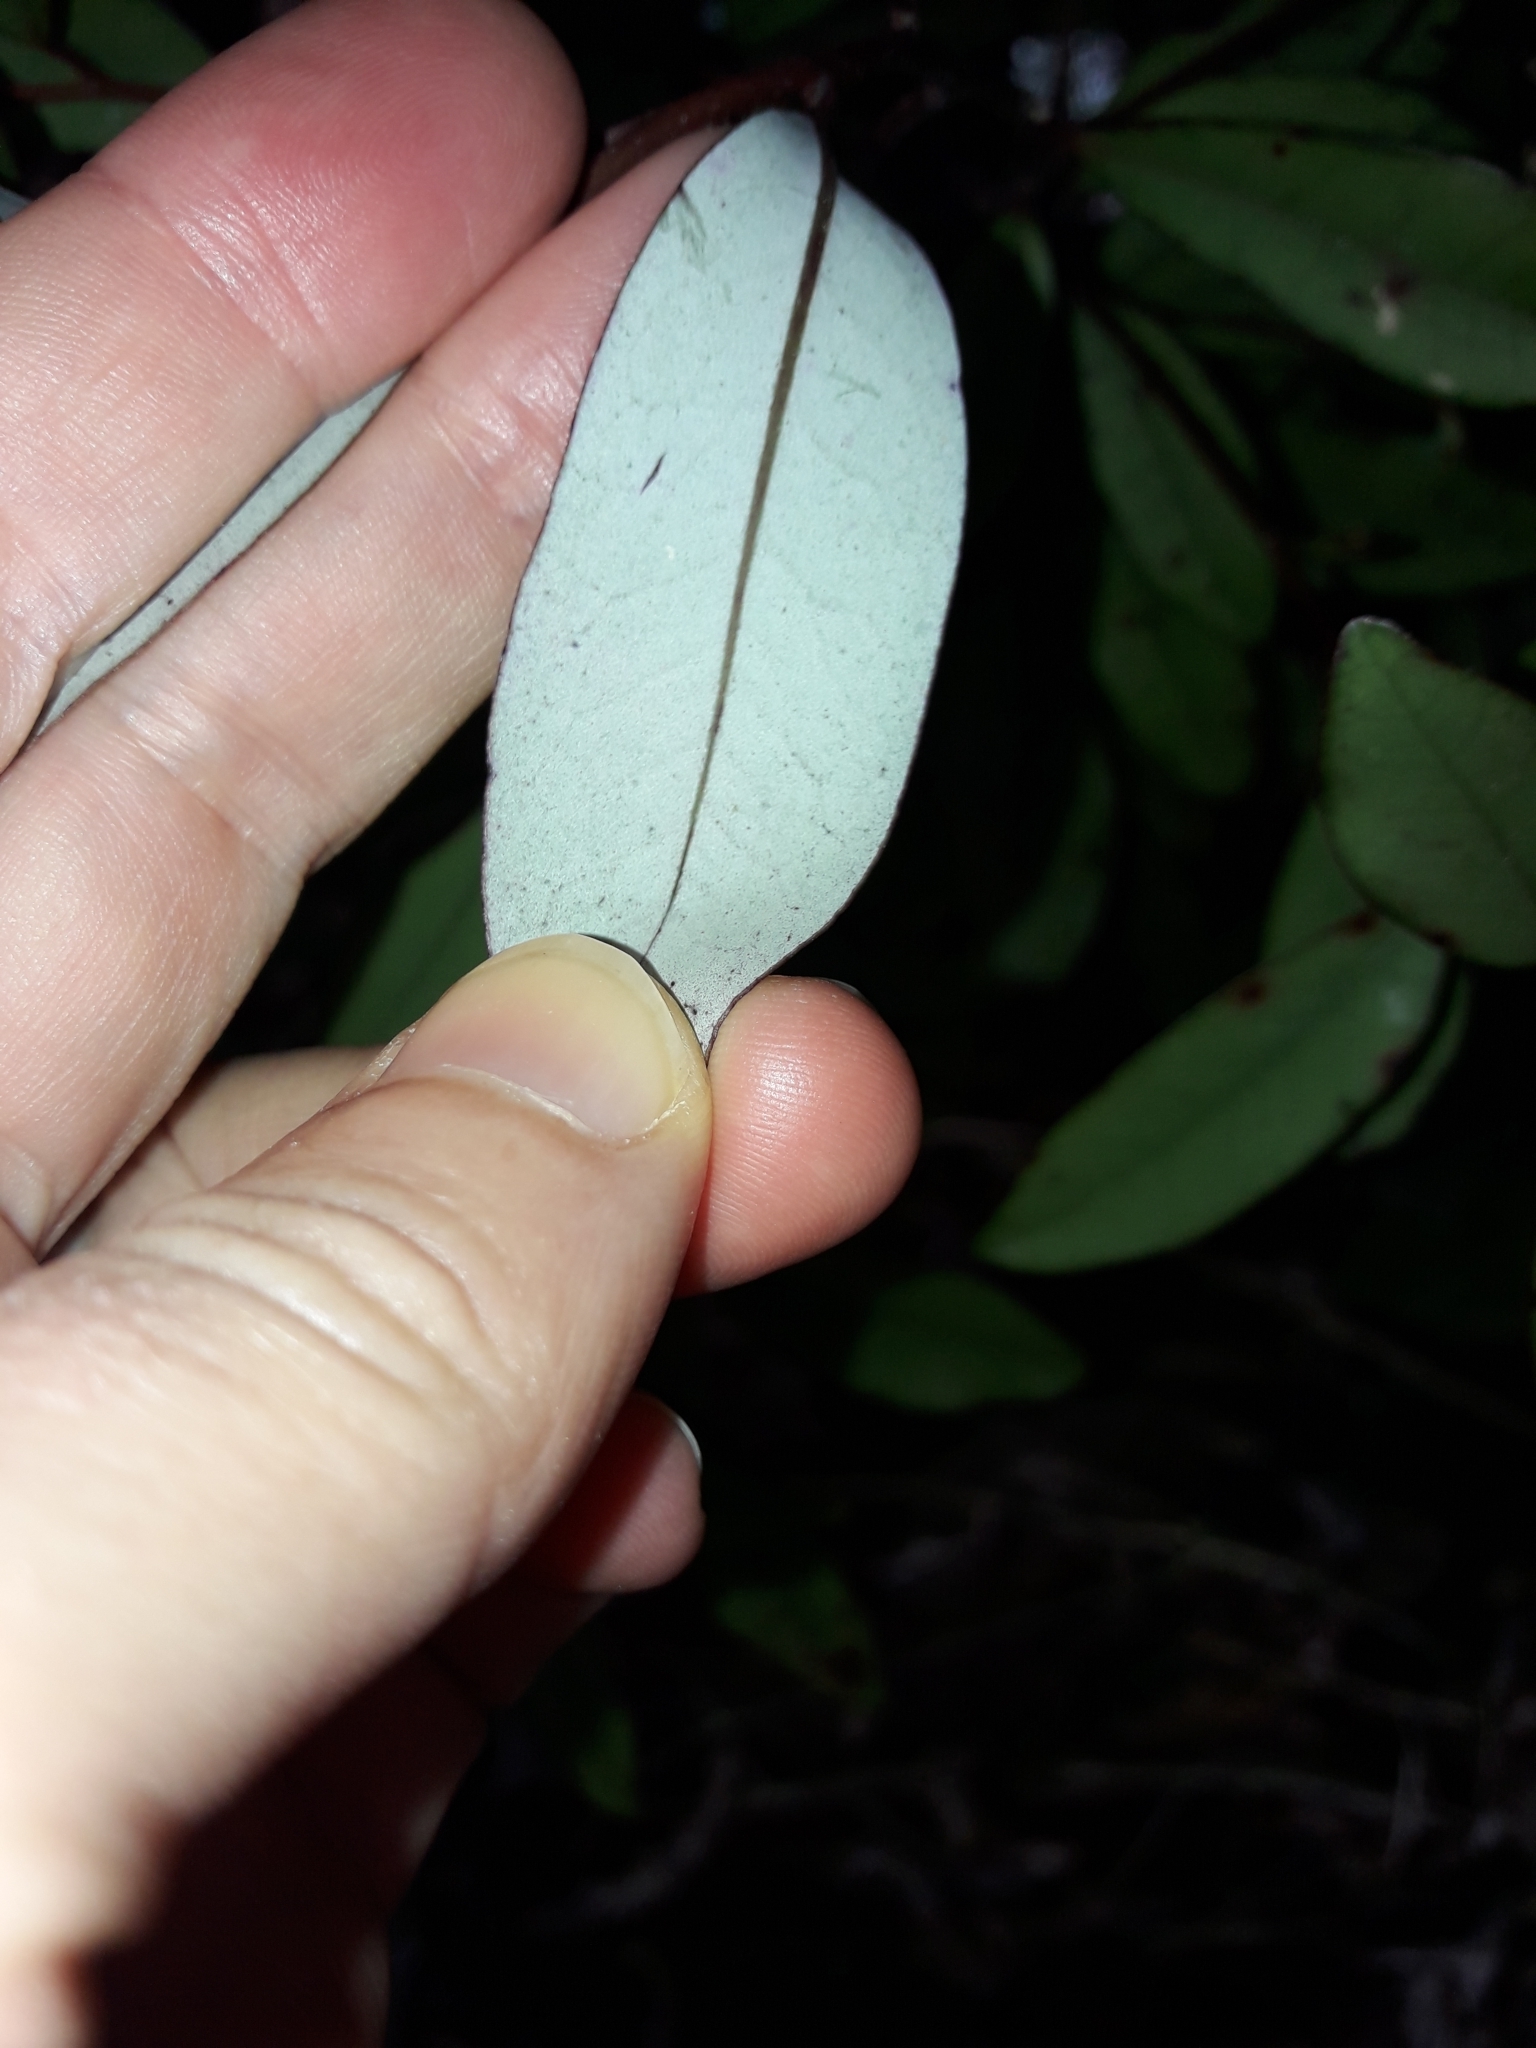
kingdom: Plantae
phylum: Tracheophyta
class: Magnoliopsida
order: Canellales
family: Winteraceae
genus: Pseudowintera
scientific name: Pseudowintera colorata
